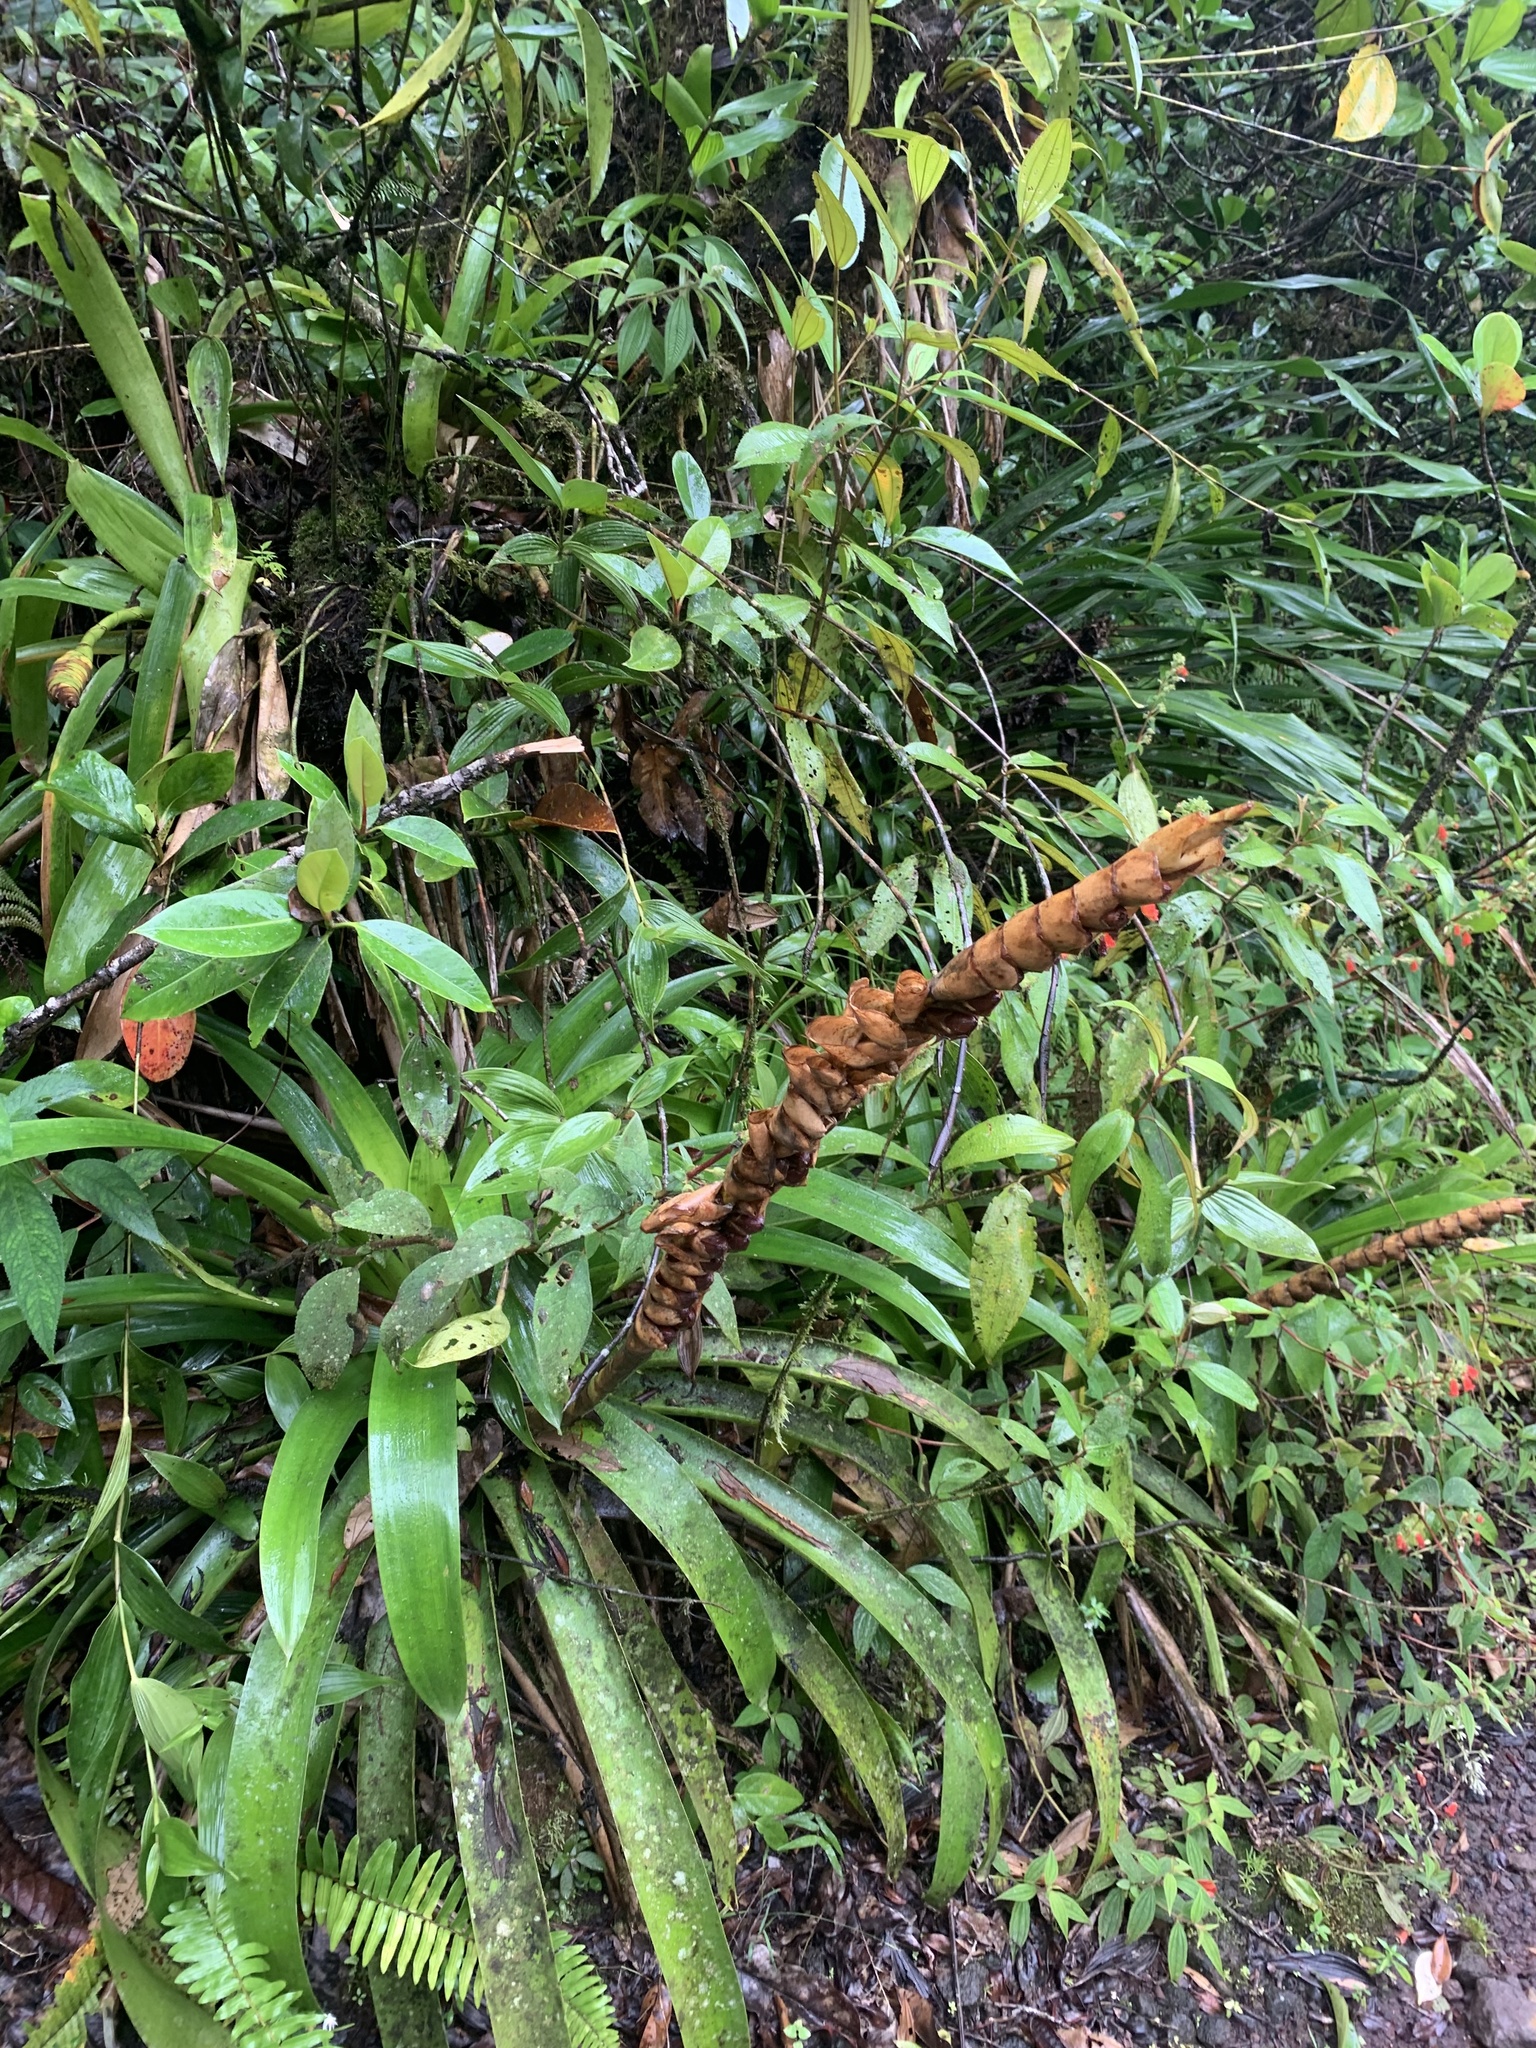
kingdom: Plantae
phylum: Tracheophyta
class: Liliopsida
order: Poales
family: Bromeliaceae
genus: Werauhia
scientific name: Werauhia gladioliflora
